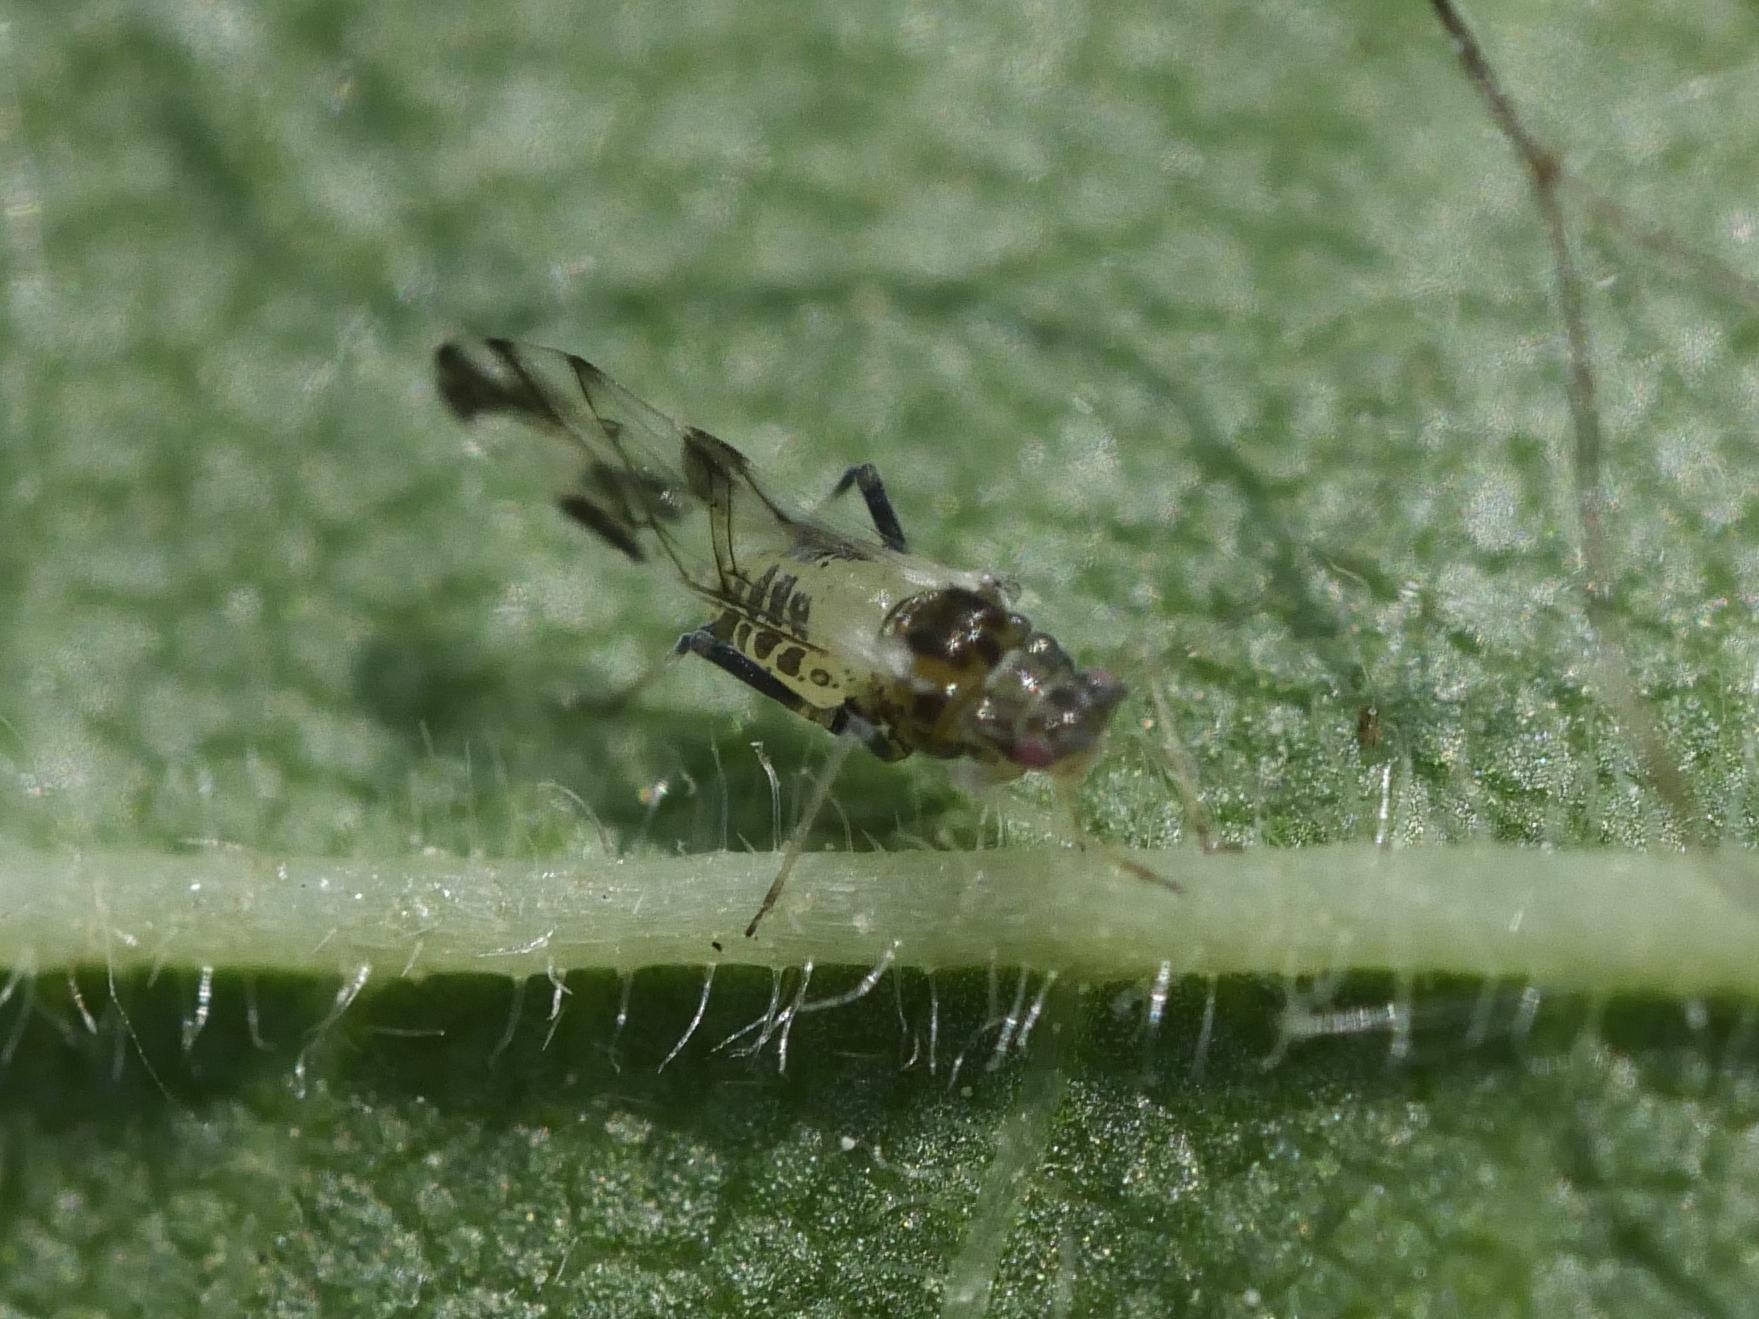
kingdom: Animalia
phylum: Arthropoda
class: Insecta
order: Hemiptera
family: Aphididae
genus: Tinocallis
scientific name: Tinocallis platani
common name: Elm aphid
